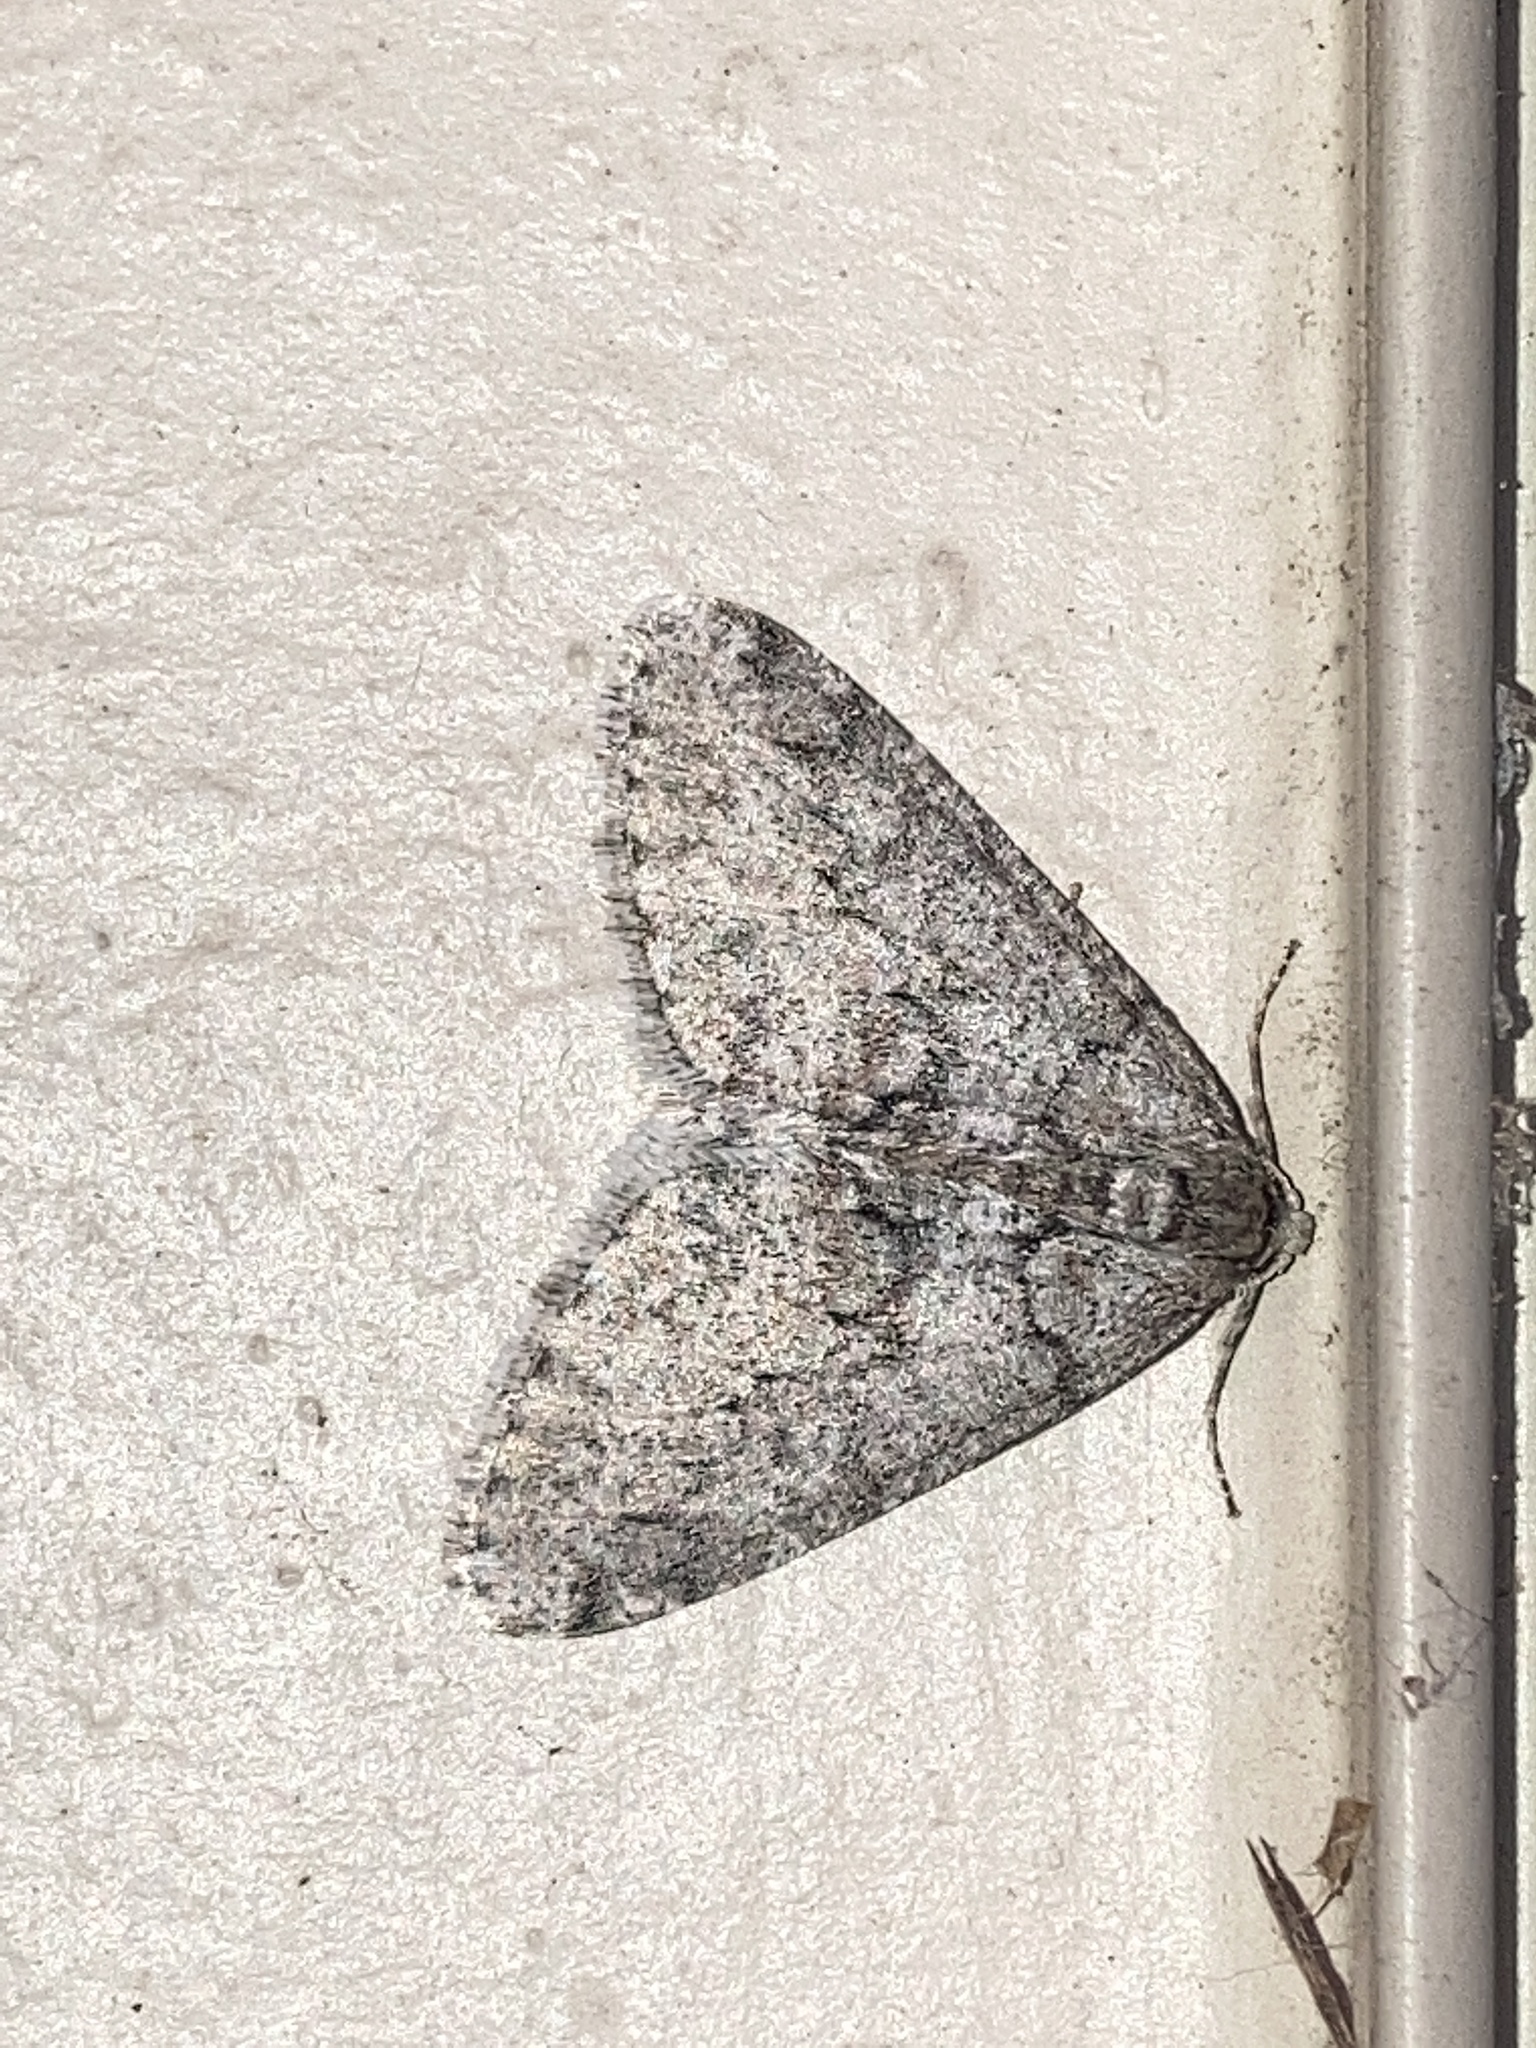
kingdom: Animalia
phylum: Arthropoda
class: Insecta
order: Lepidoptera
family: Geometridae
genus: Phigalia
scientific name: Phigalia denticulata
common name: Toothed phigalia
